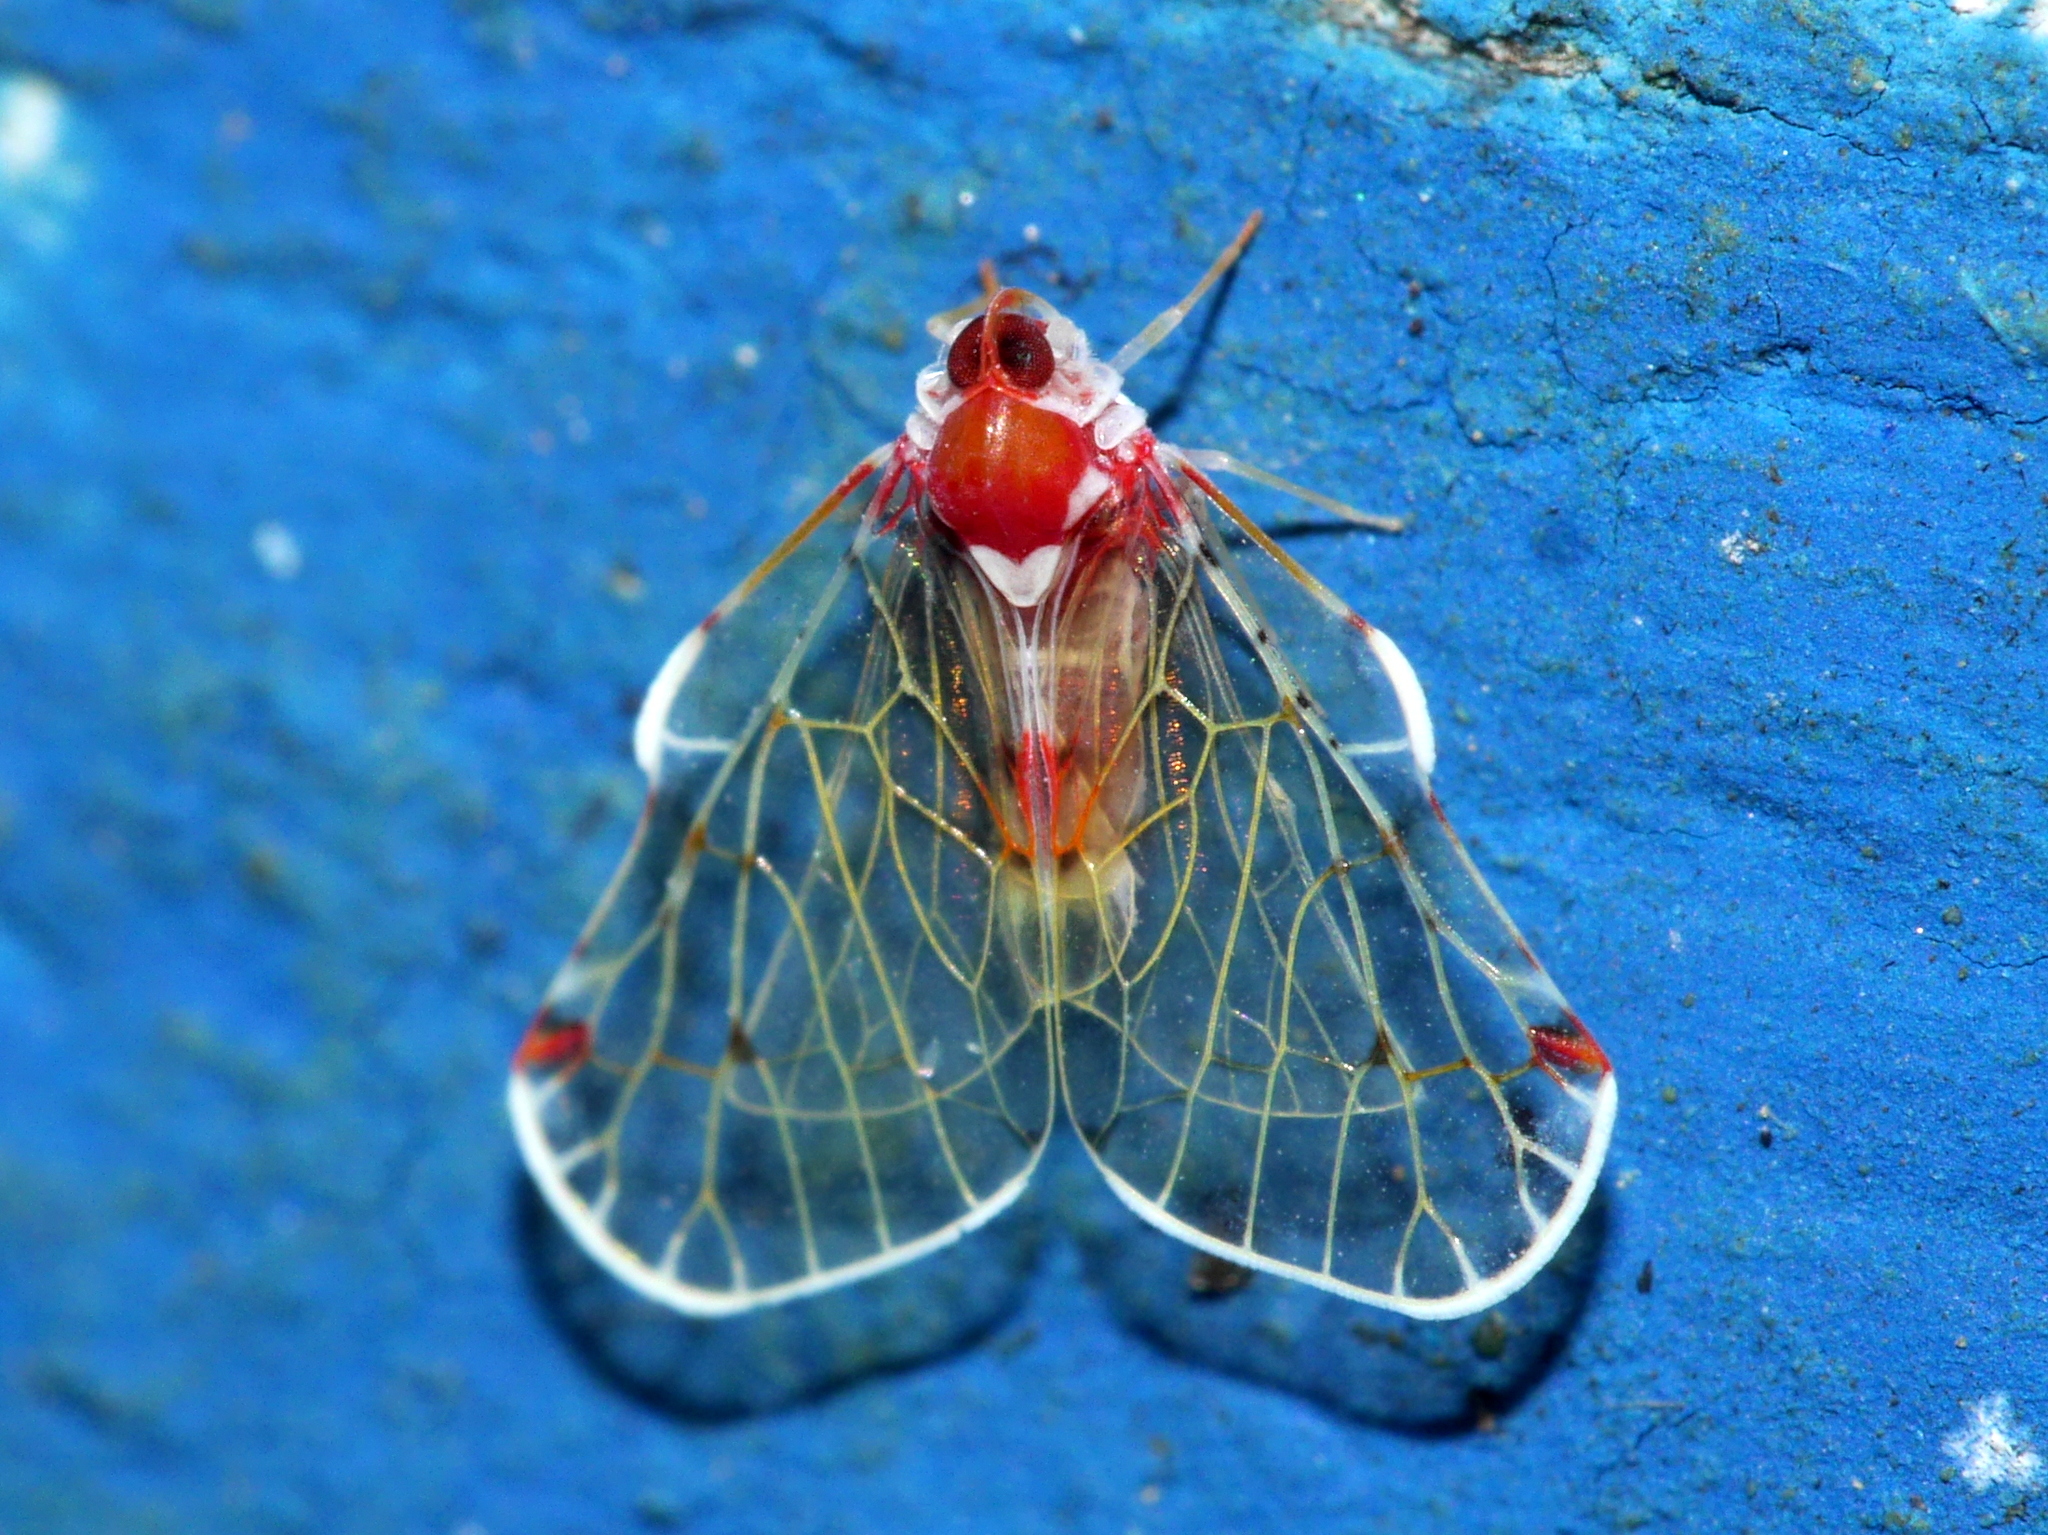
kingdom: Animalia
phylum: Arthropoda
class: Insecta
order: Hemiptera
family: Derbidae
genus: Saccharodite
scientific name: Saccharodite securifera
